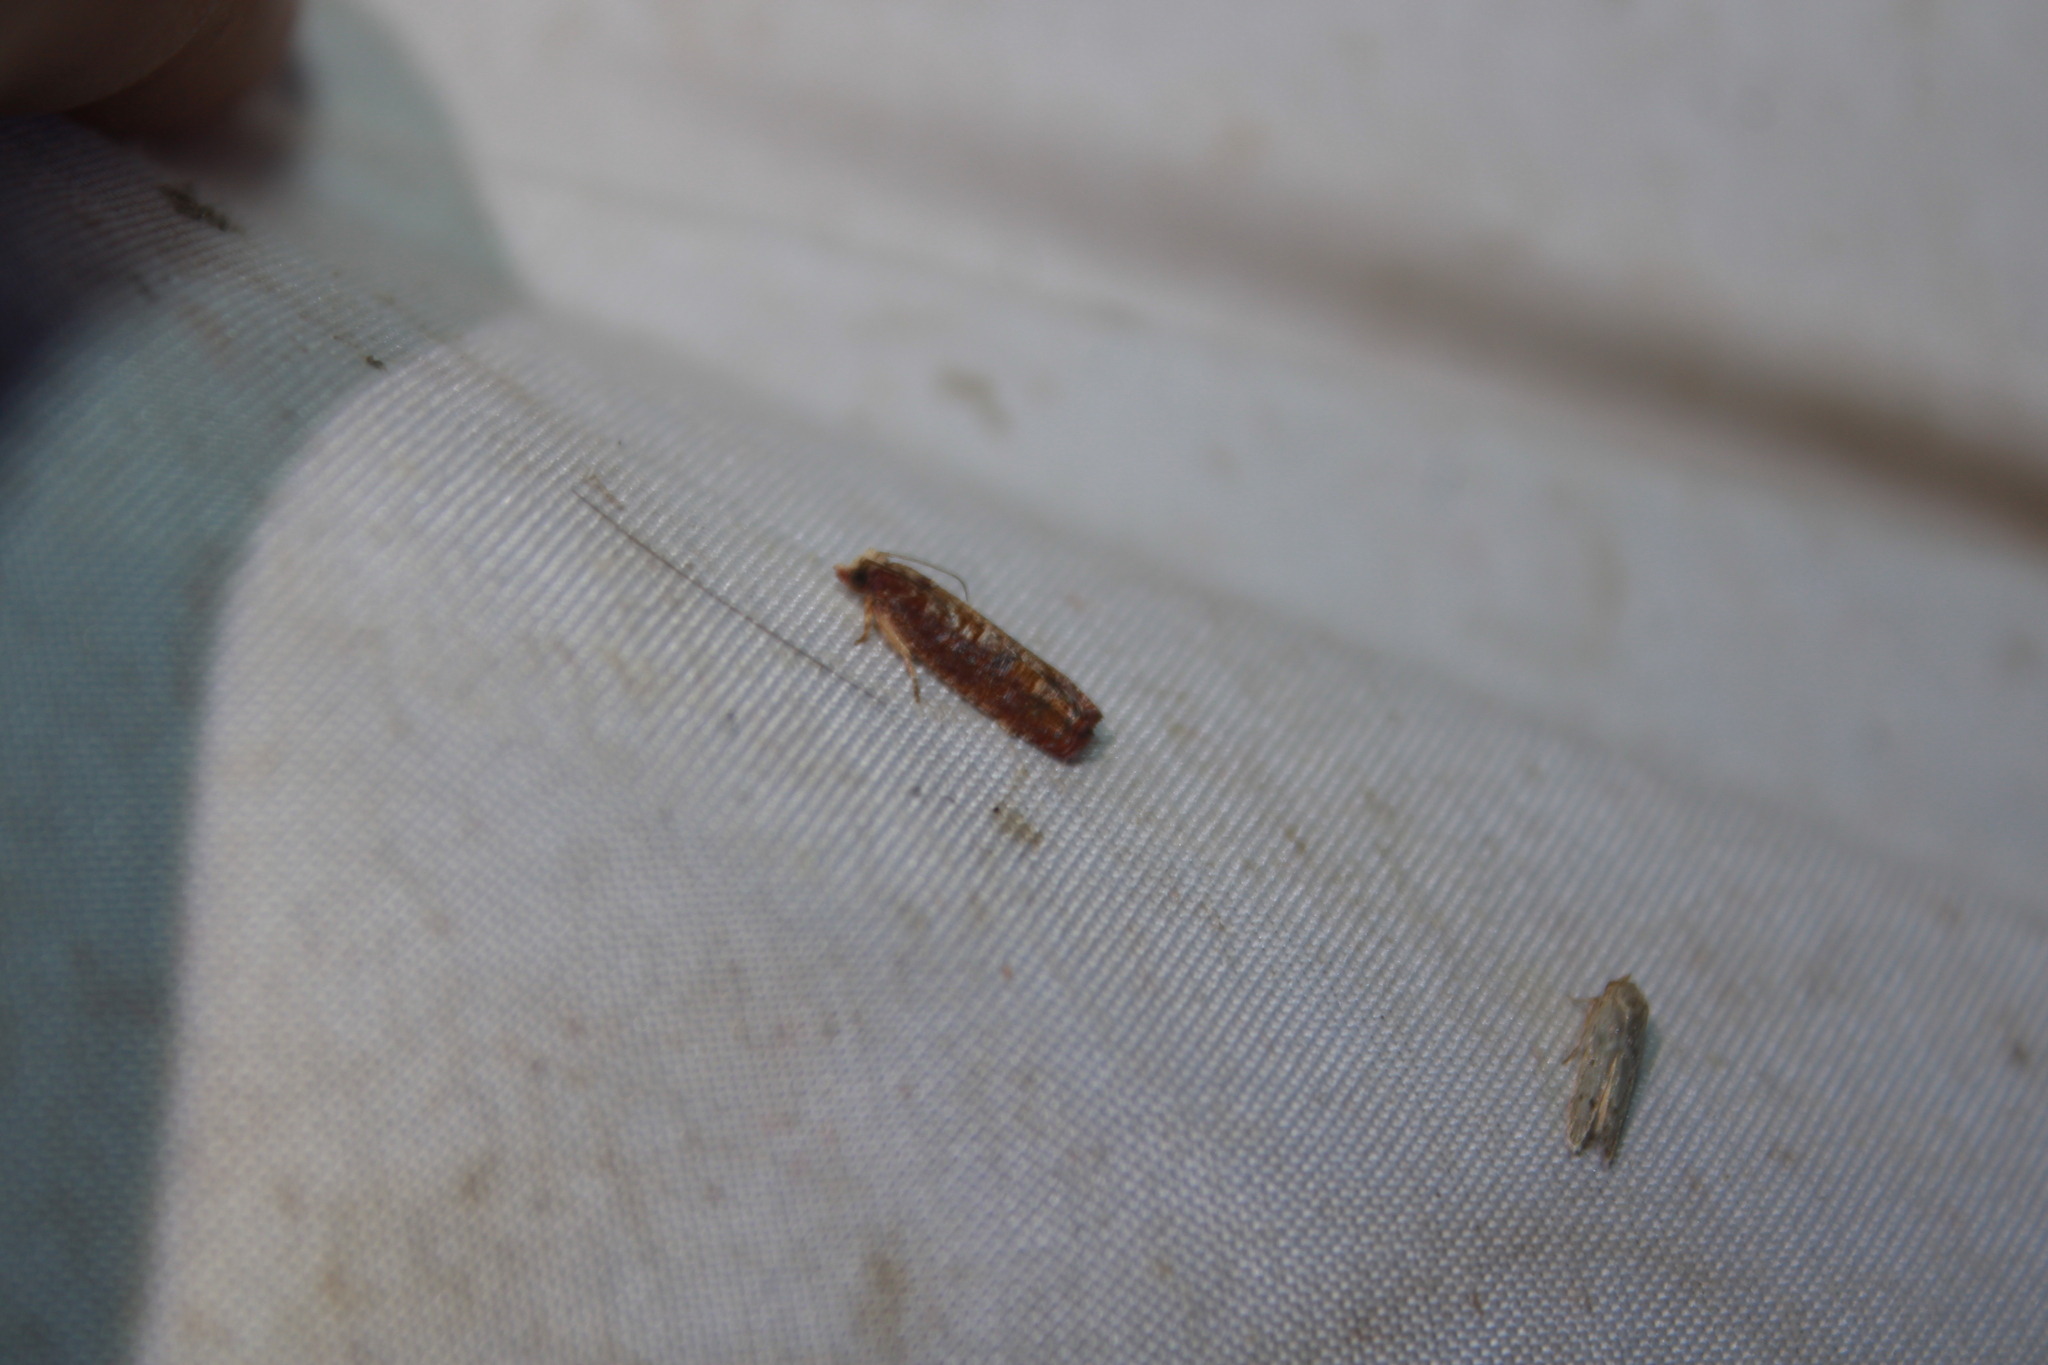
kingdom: Animalia
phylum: Arthropoda
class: Insecta
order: Lepidoptera
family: Tortricidae
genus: Episimus
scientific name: Episimus lagunculariae
